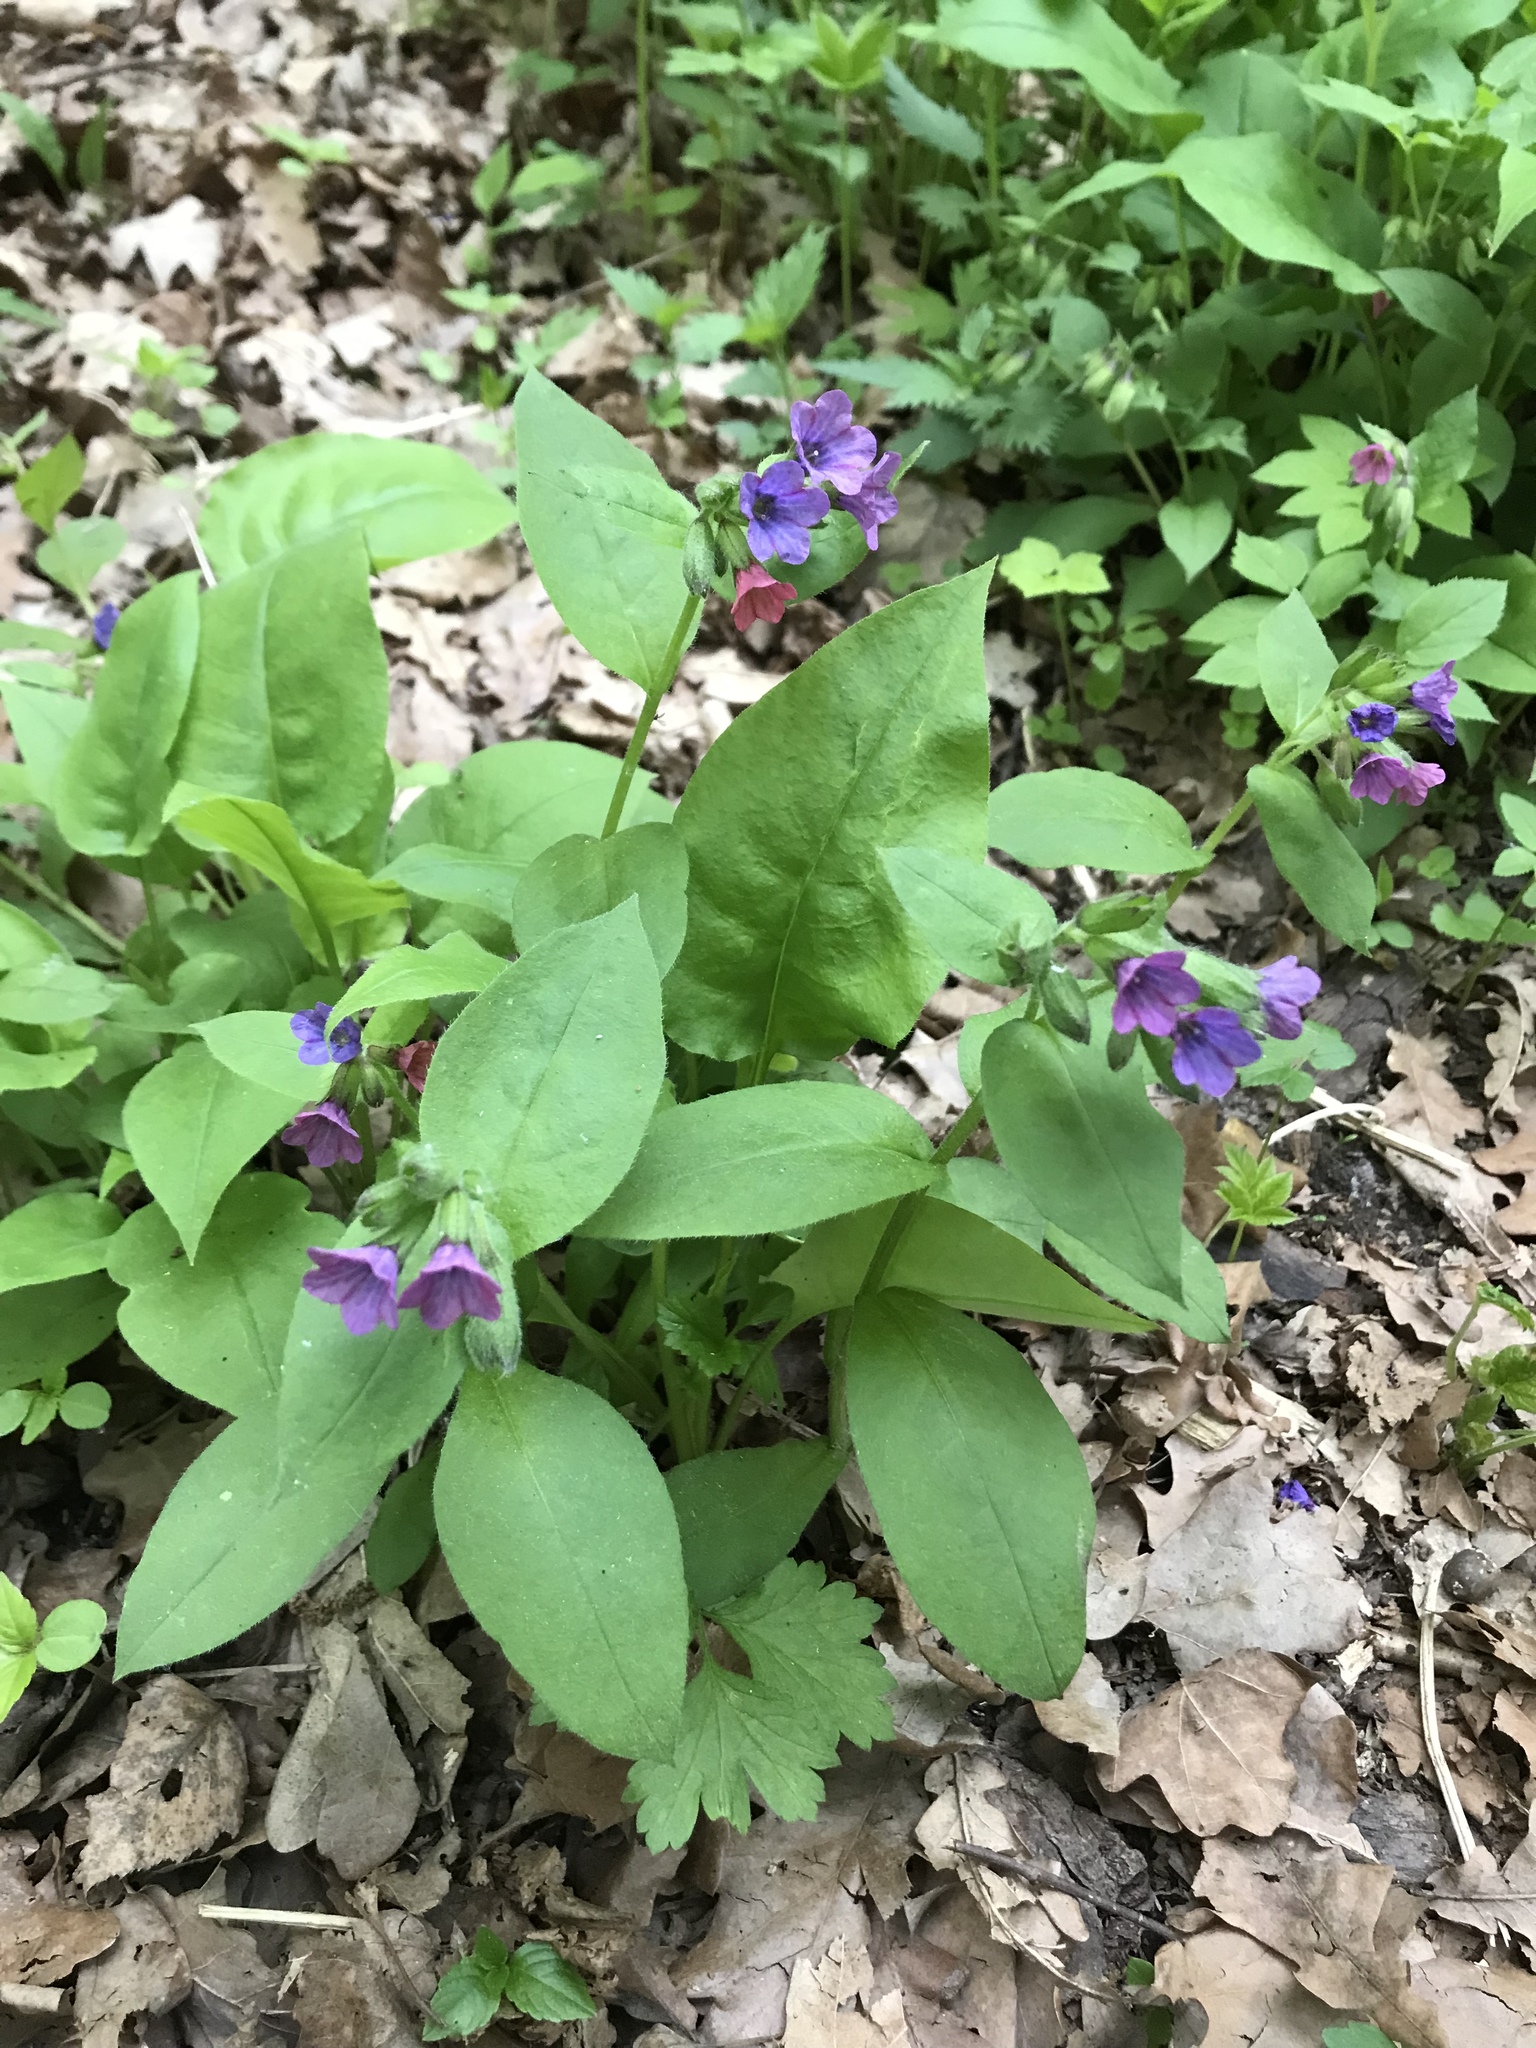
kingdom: Plantae
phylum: Tracheophyta
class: Magnoliopsida
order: Boraginales
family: Boraginaceae
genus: Pulmonaria
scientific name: Pulmonaria obscura
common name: Suffolk lungwort
